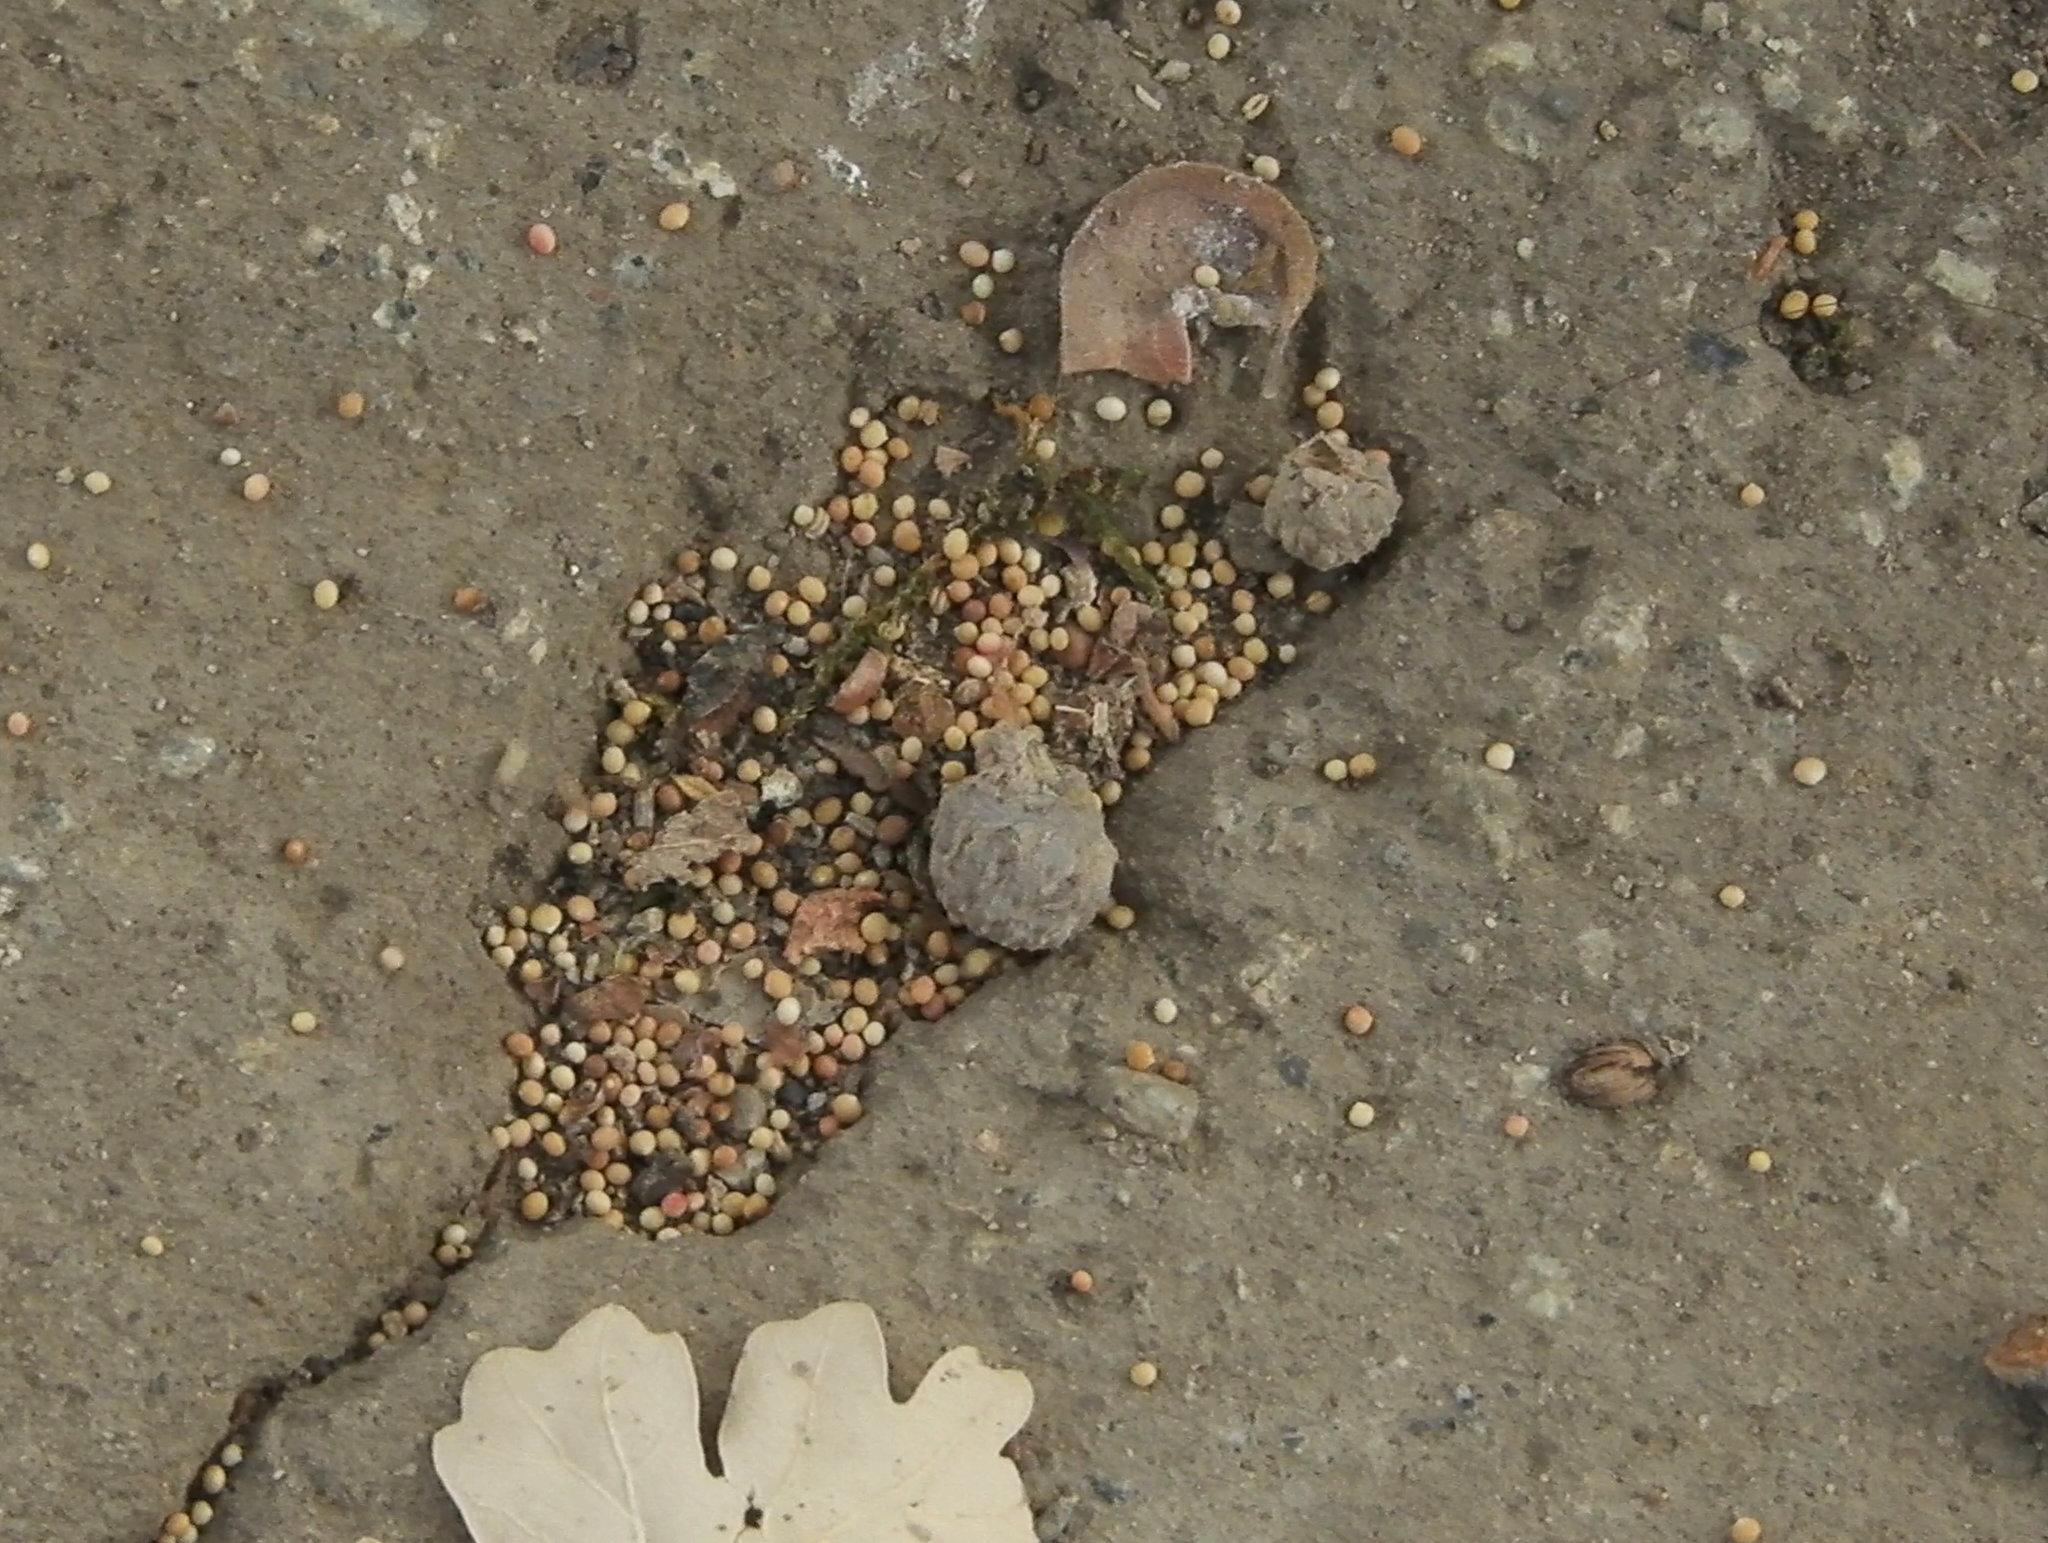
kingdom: Animalia
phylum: Arthropoda
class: Insecta
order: Hymenoptera
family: Cynipidae
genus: Neuroterus
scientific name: Neuroterus saltarius
